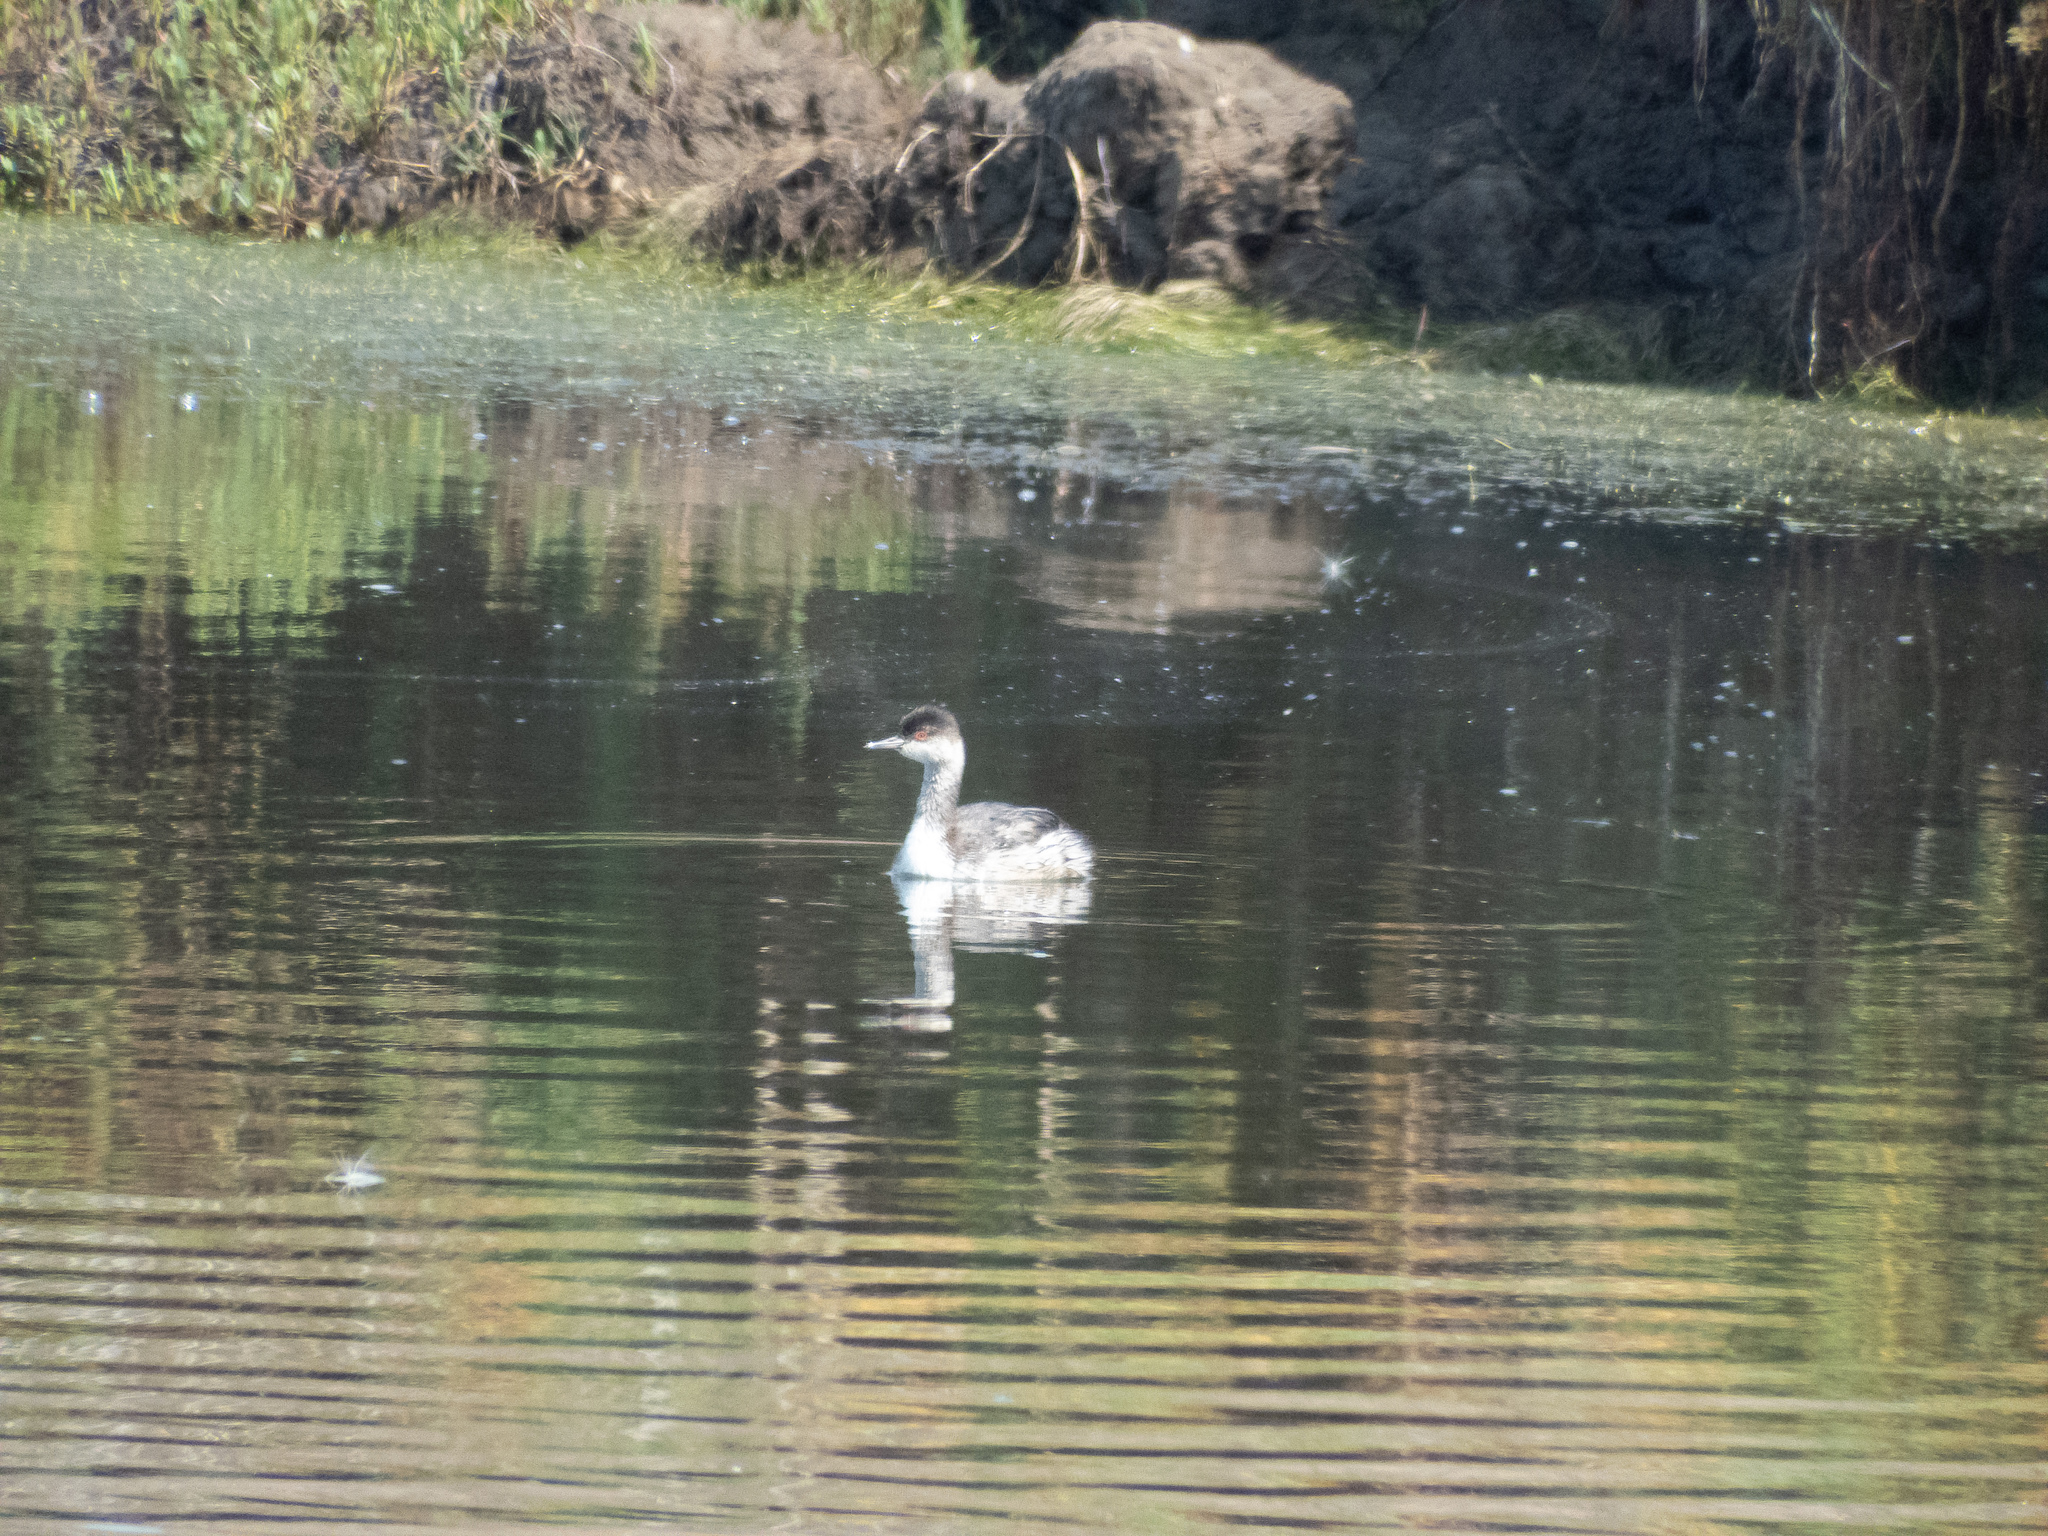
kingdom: Animalia
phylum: Chordata
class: Aves
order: Podicipediformes
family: Podicipedidae
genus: Podiceps
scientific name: Podiceps auritus
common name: Horned grebe
